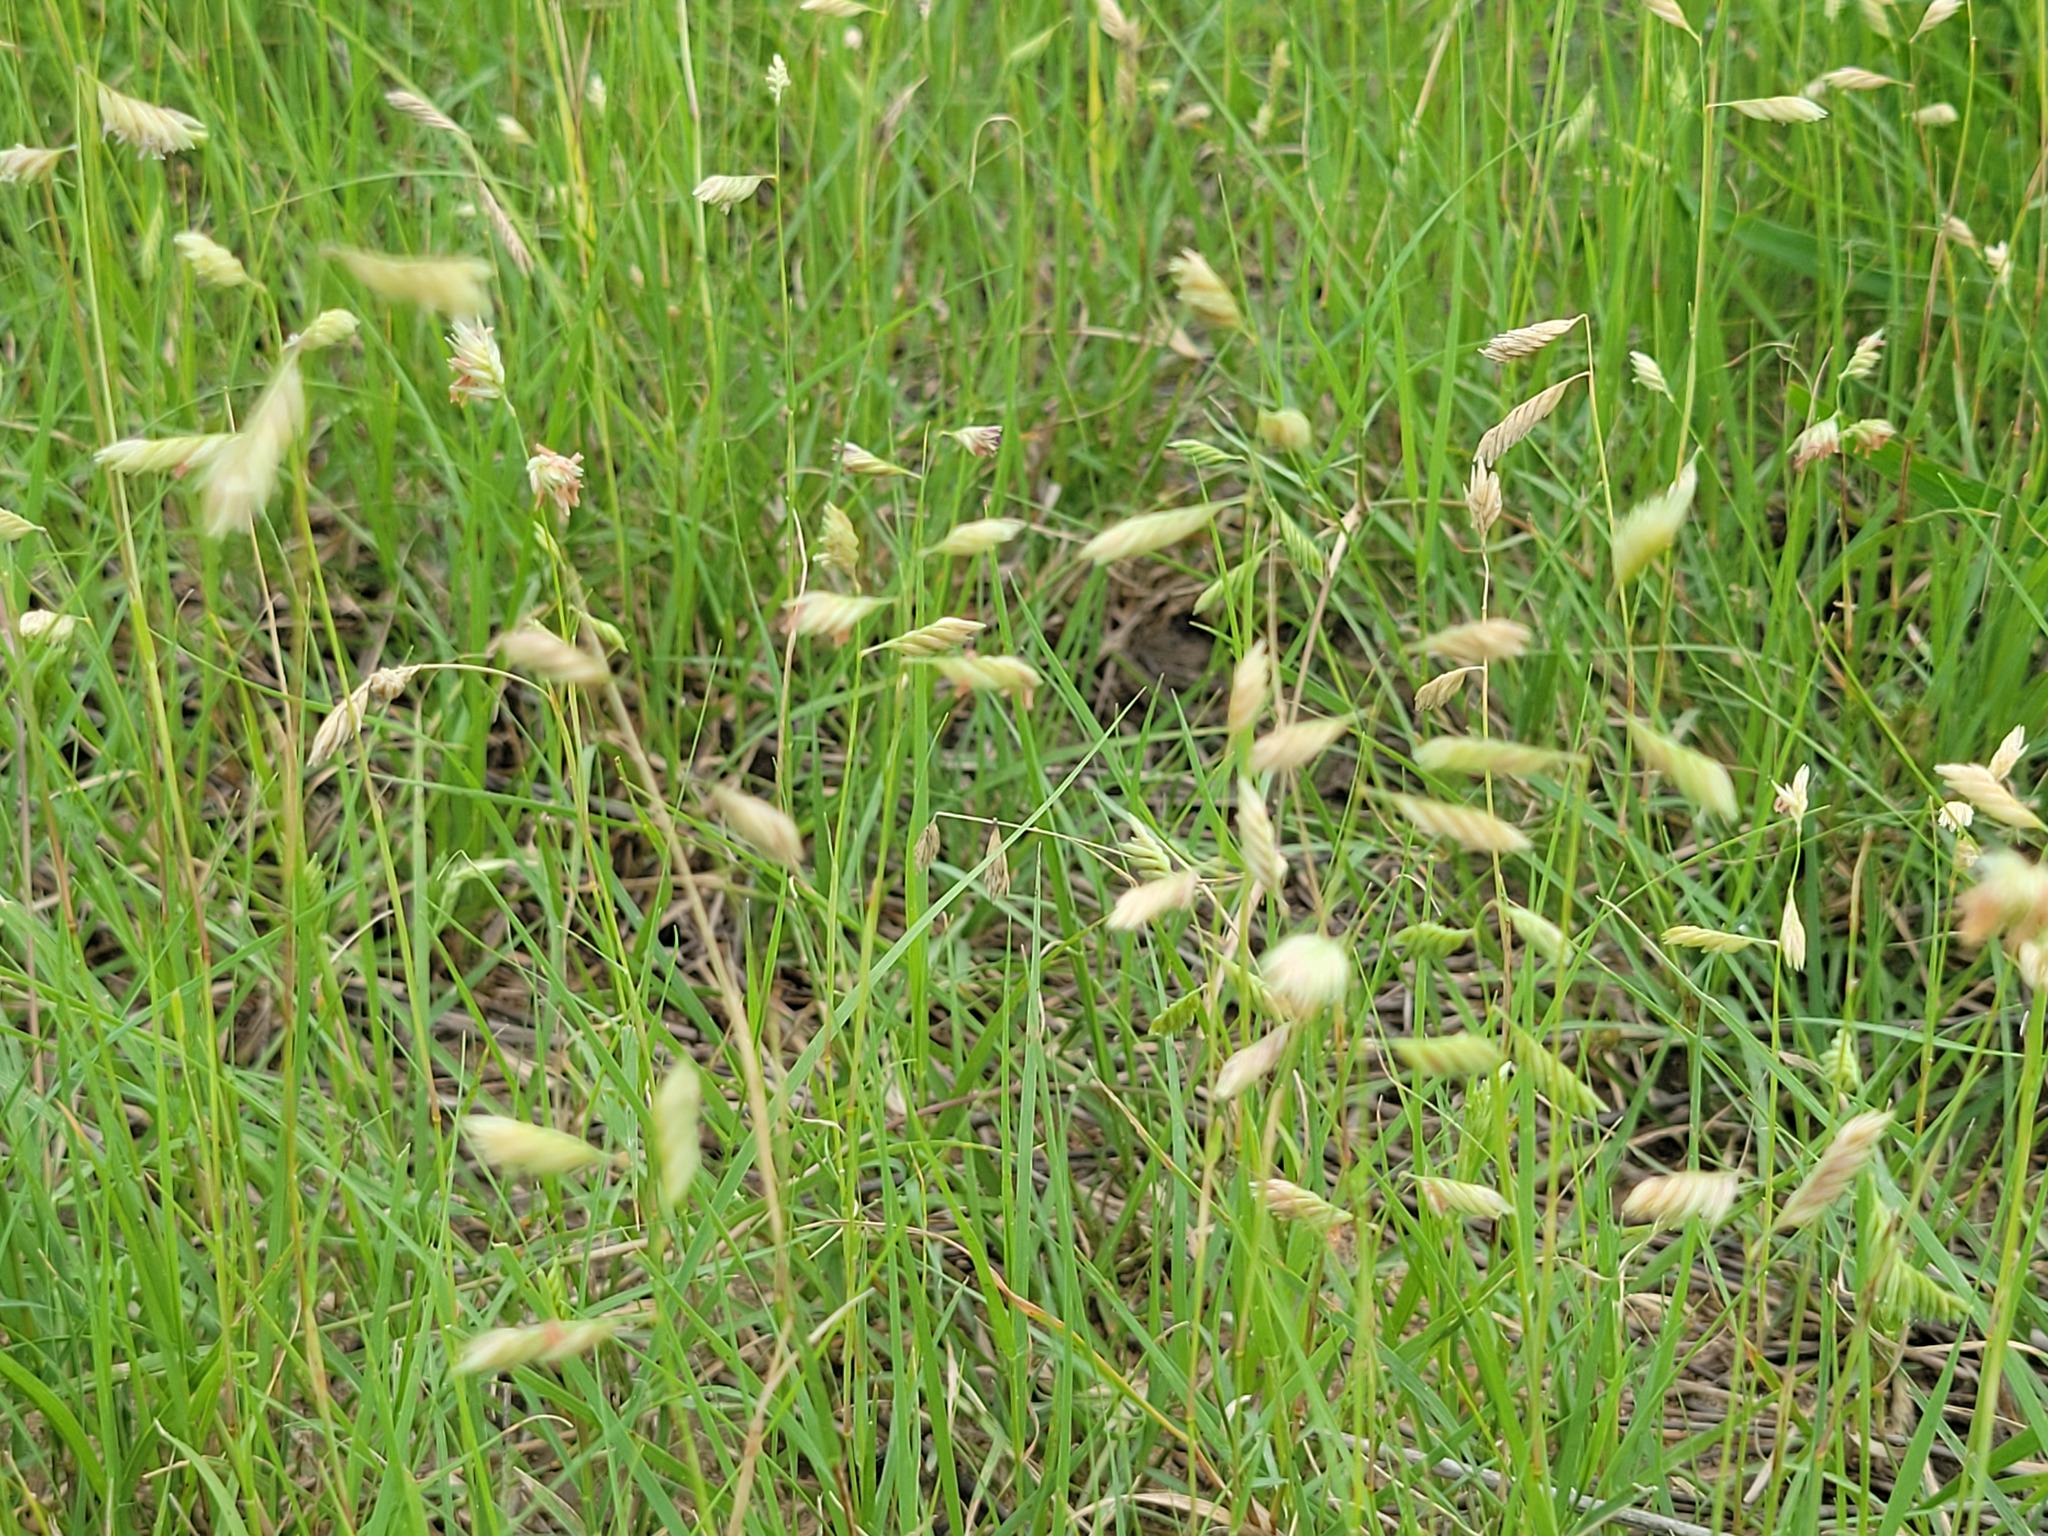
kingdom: Plantae
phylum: Tracheophyta
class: Liliopsida
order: Poales
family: Poaceae
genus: Bouteloua
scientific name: Bouteloua dactyloides
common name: Buffalo grass
